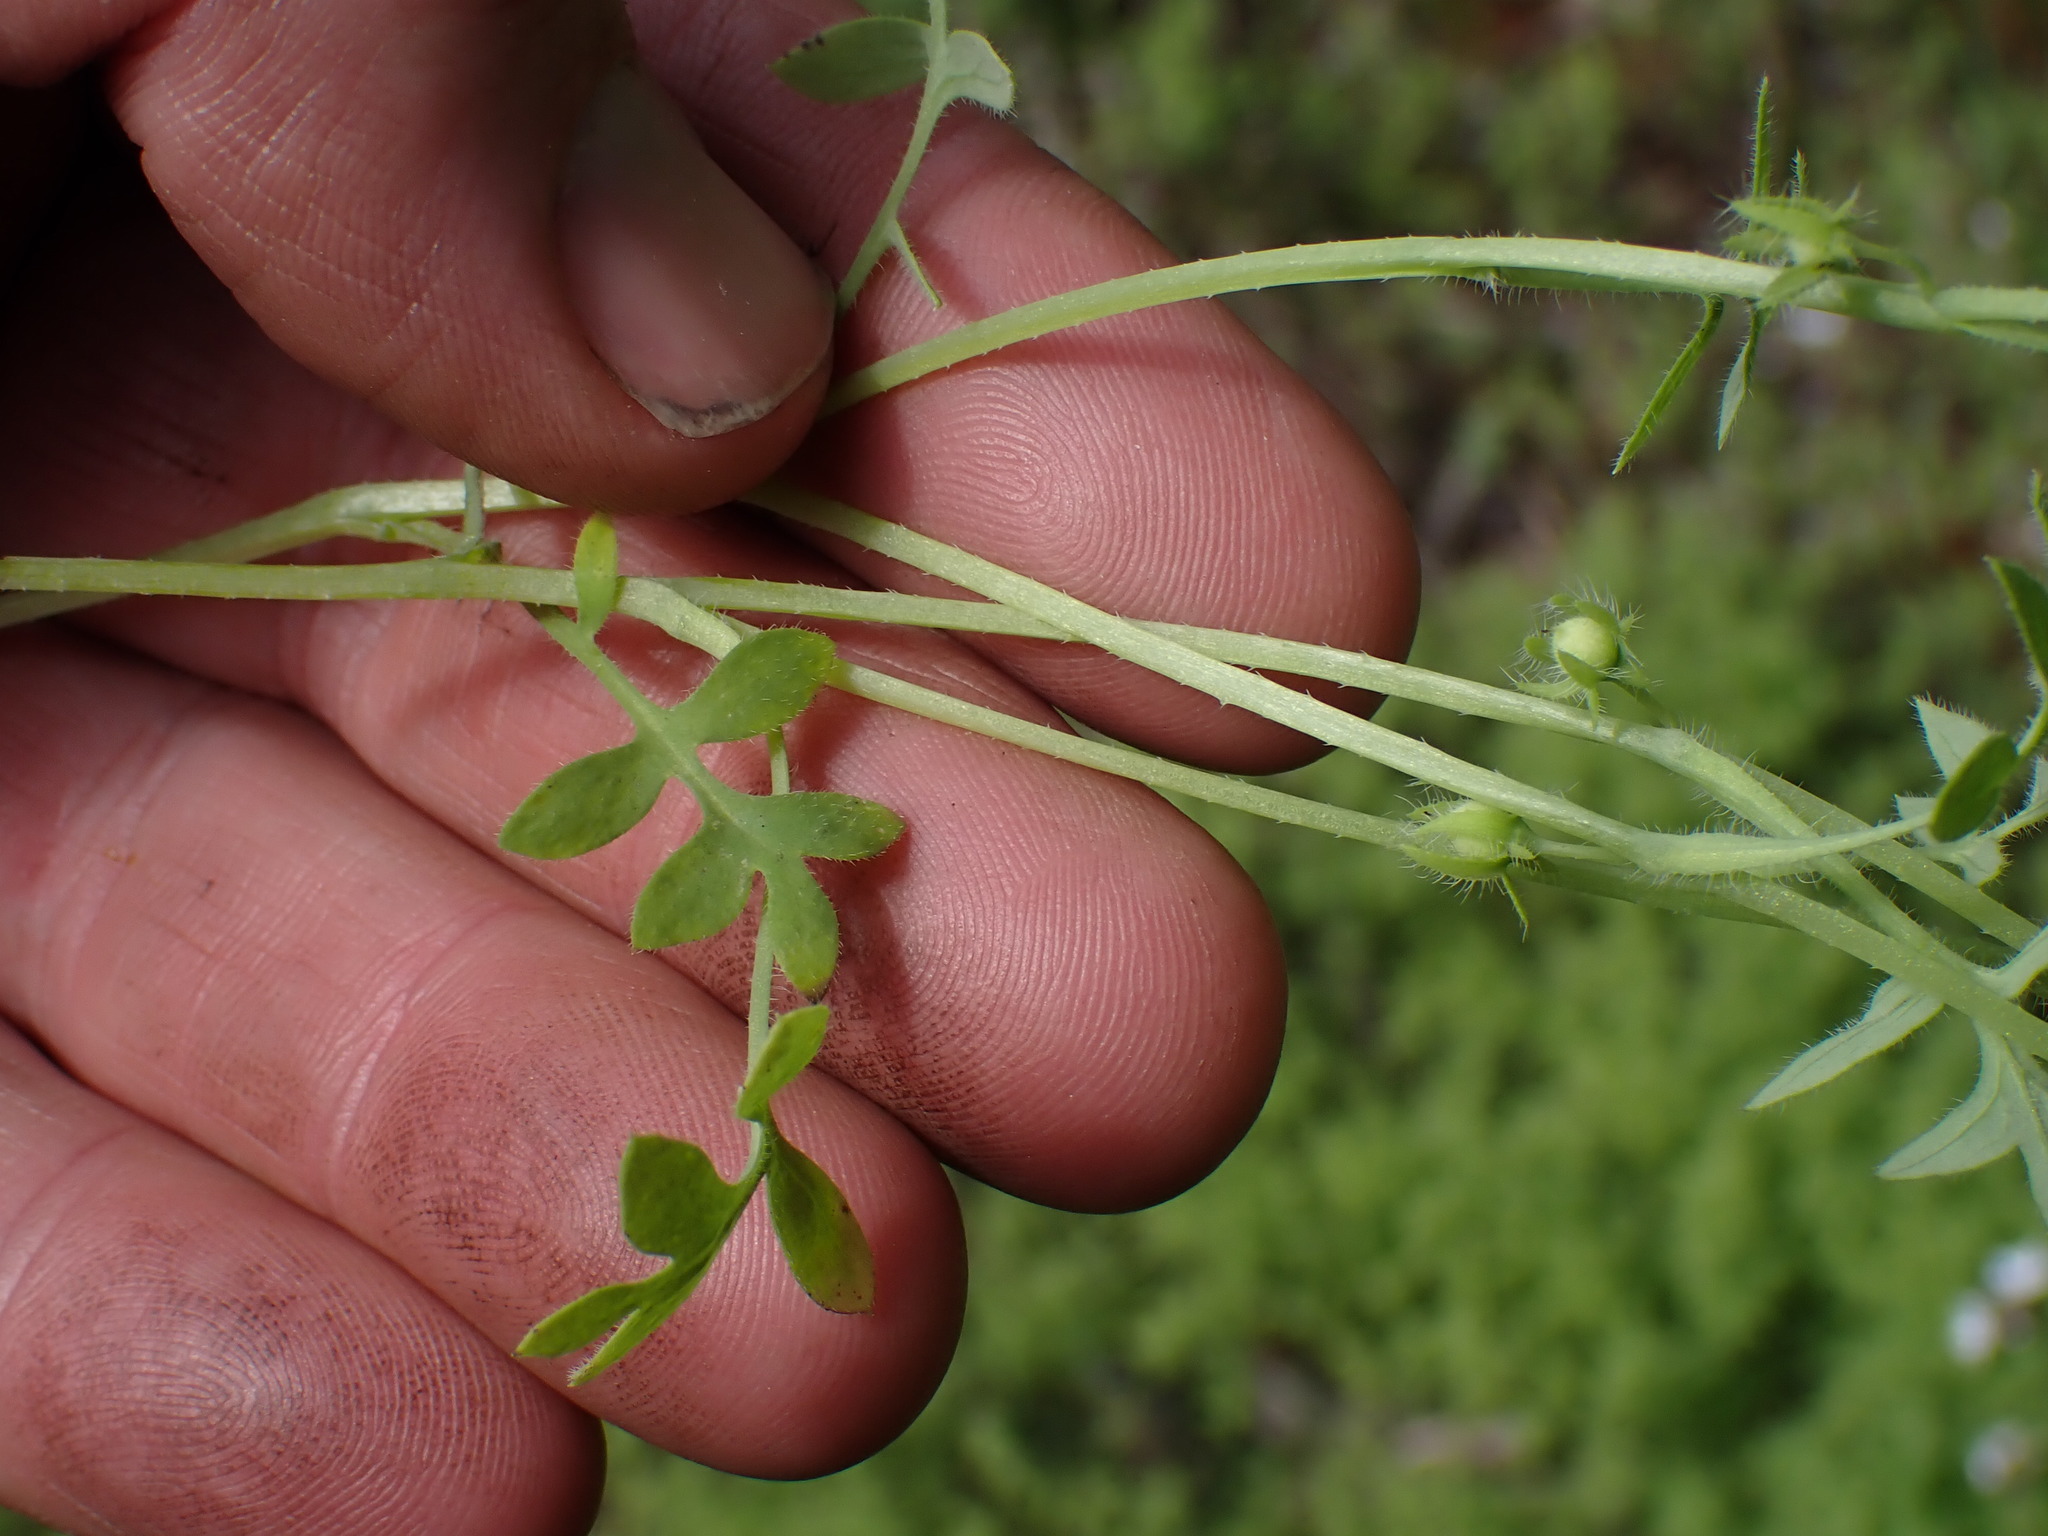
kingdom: Plantae
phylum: Tracheophyta
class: Magnoliopsida
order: Boraginales
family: Hydrophyllaceae
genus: Nemophila
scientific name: Nemophila breviflora
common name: Great basin baby-blue-eyes
